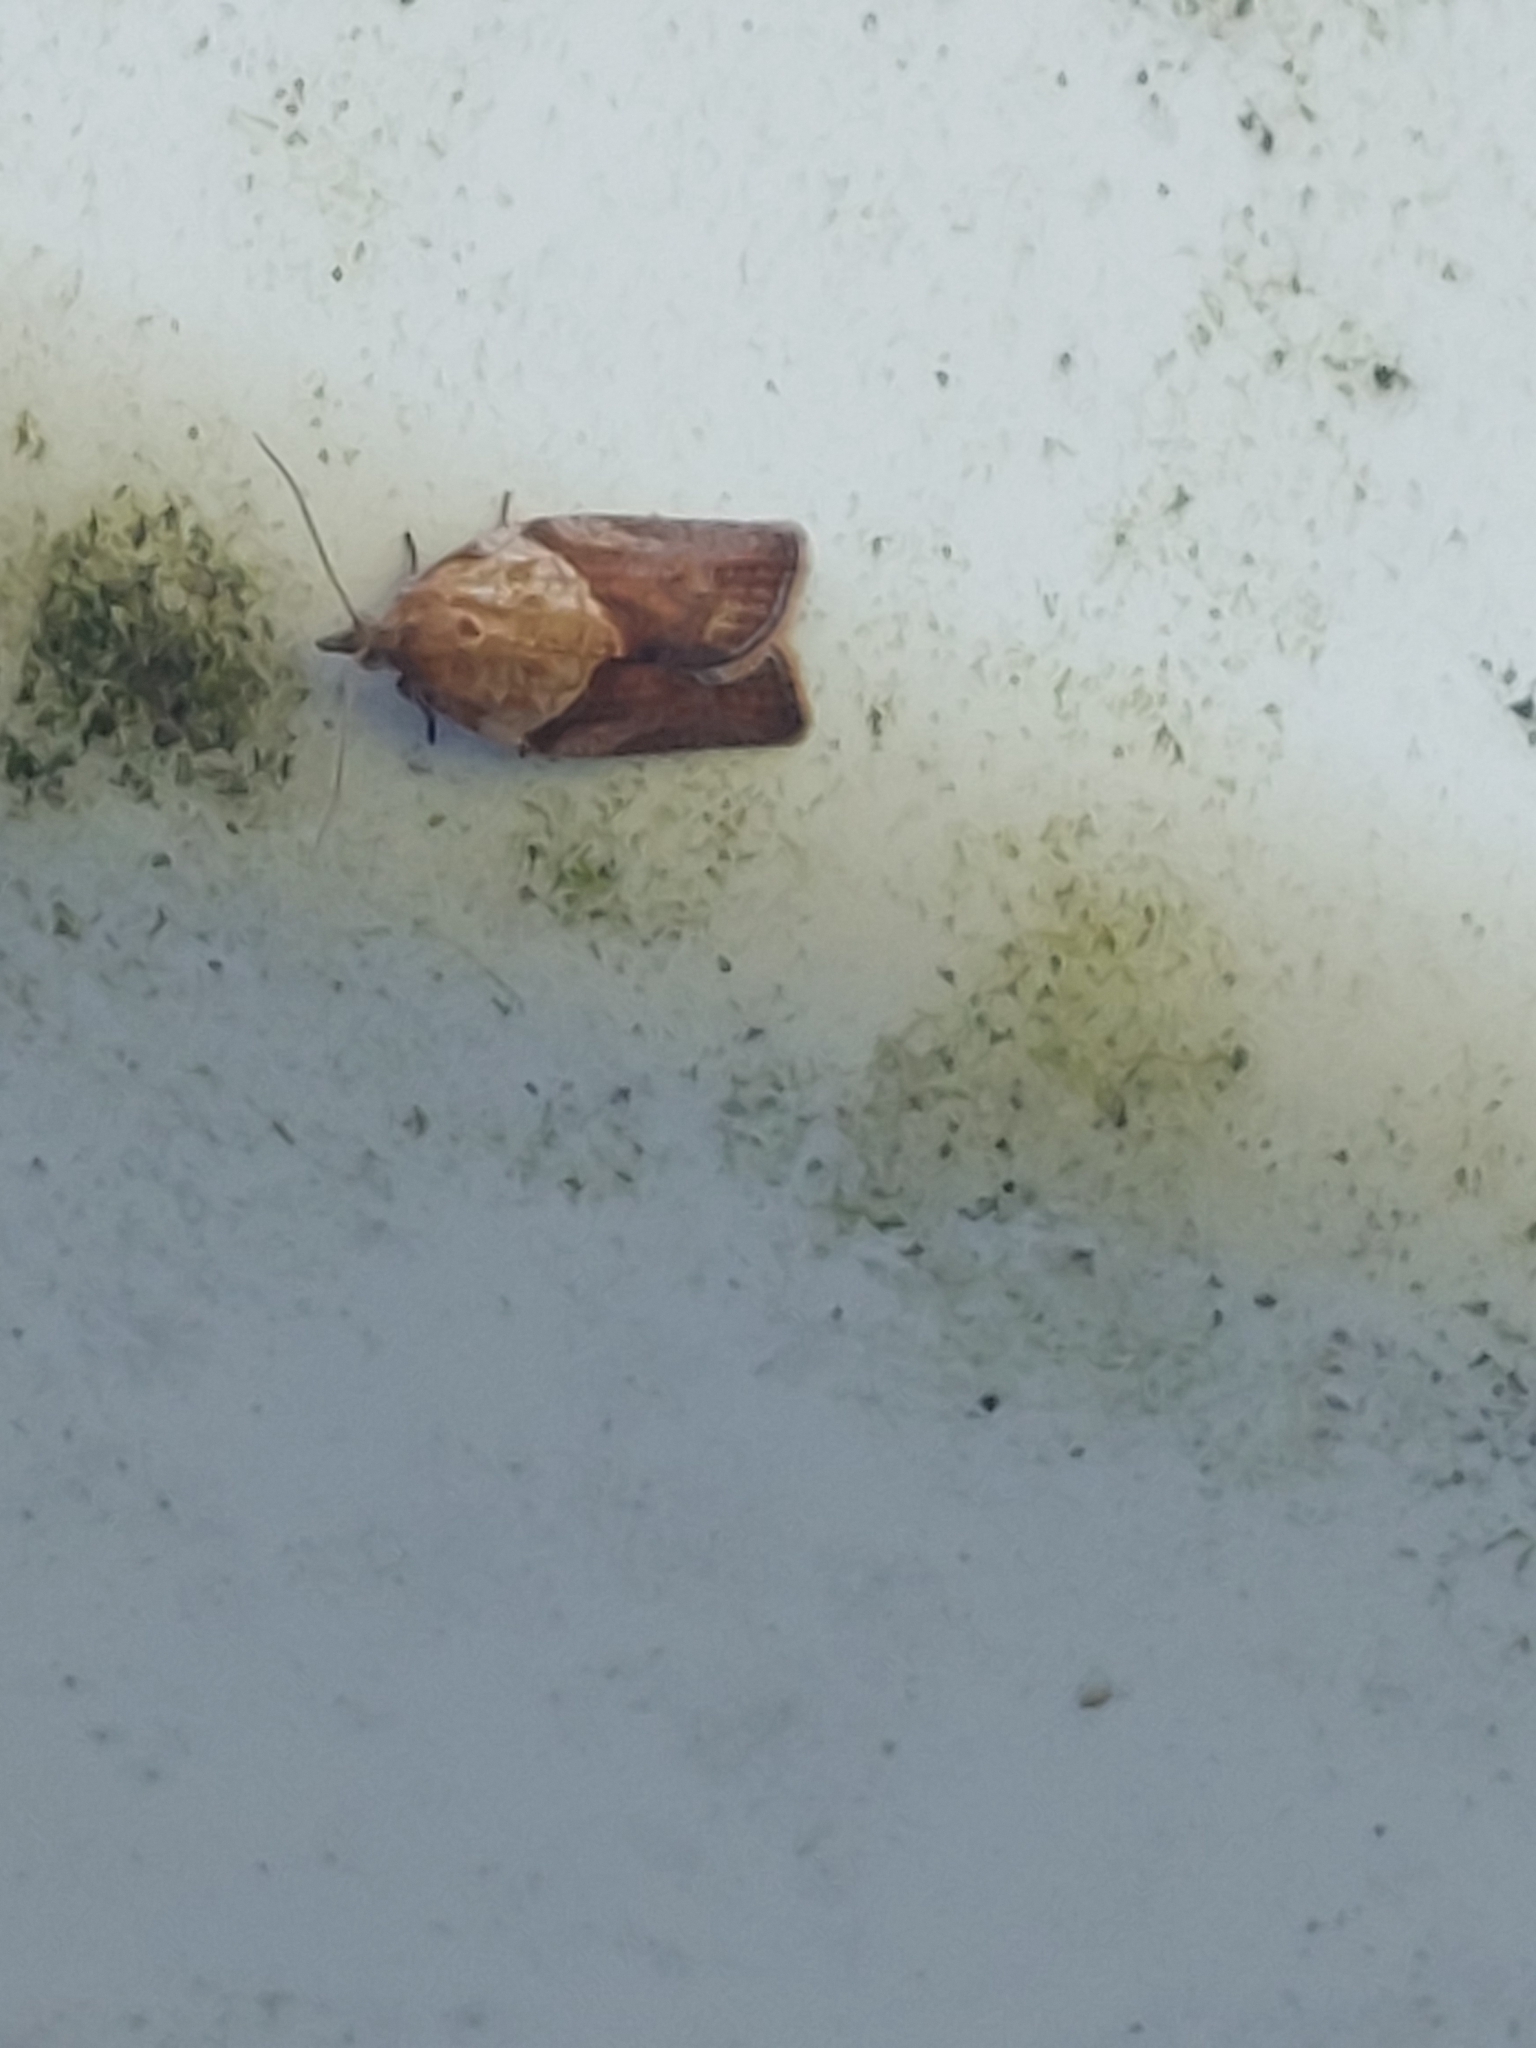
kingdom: Animalia
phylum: Arthropoda
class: Insecta
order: Lepidoptera
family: Tortricidae
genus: Epiphyas
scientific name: Epiphyas postvittana
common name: Light brown apple moth
